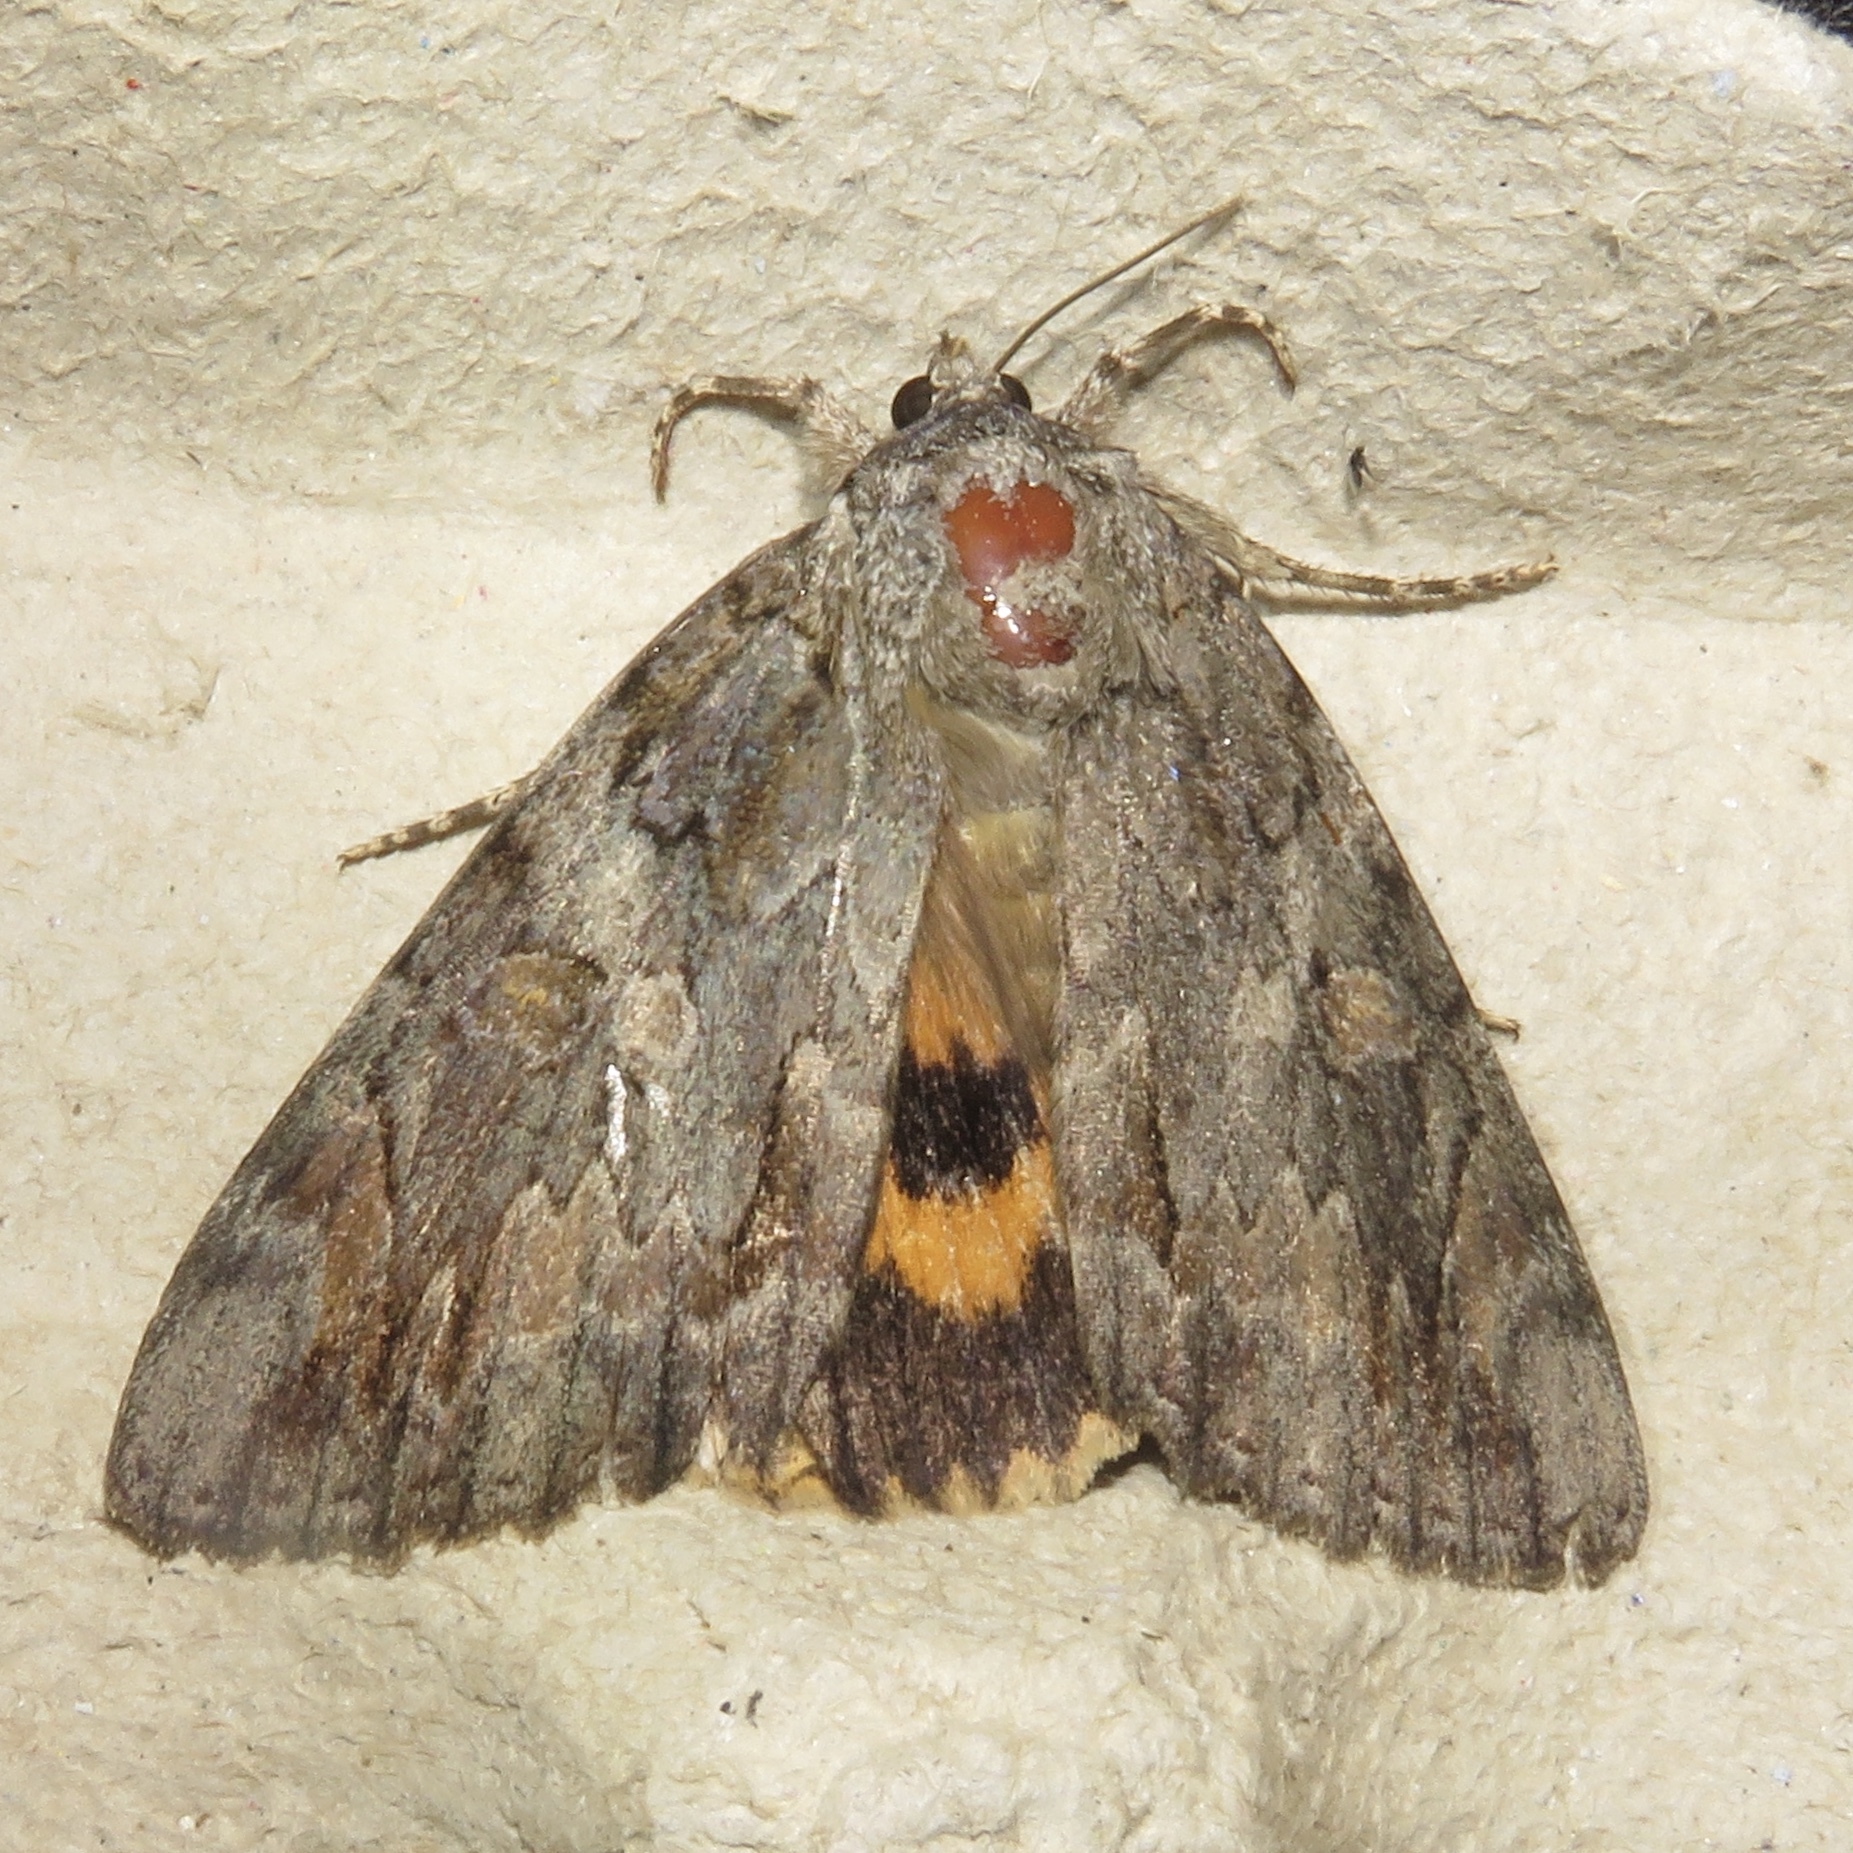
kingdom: Animalia
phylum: Arthropoda
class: Insecta
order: Lepidoptera
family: Erebidae
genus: Catocala
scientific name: Catocala neogama
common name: Bride underwing
